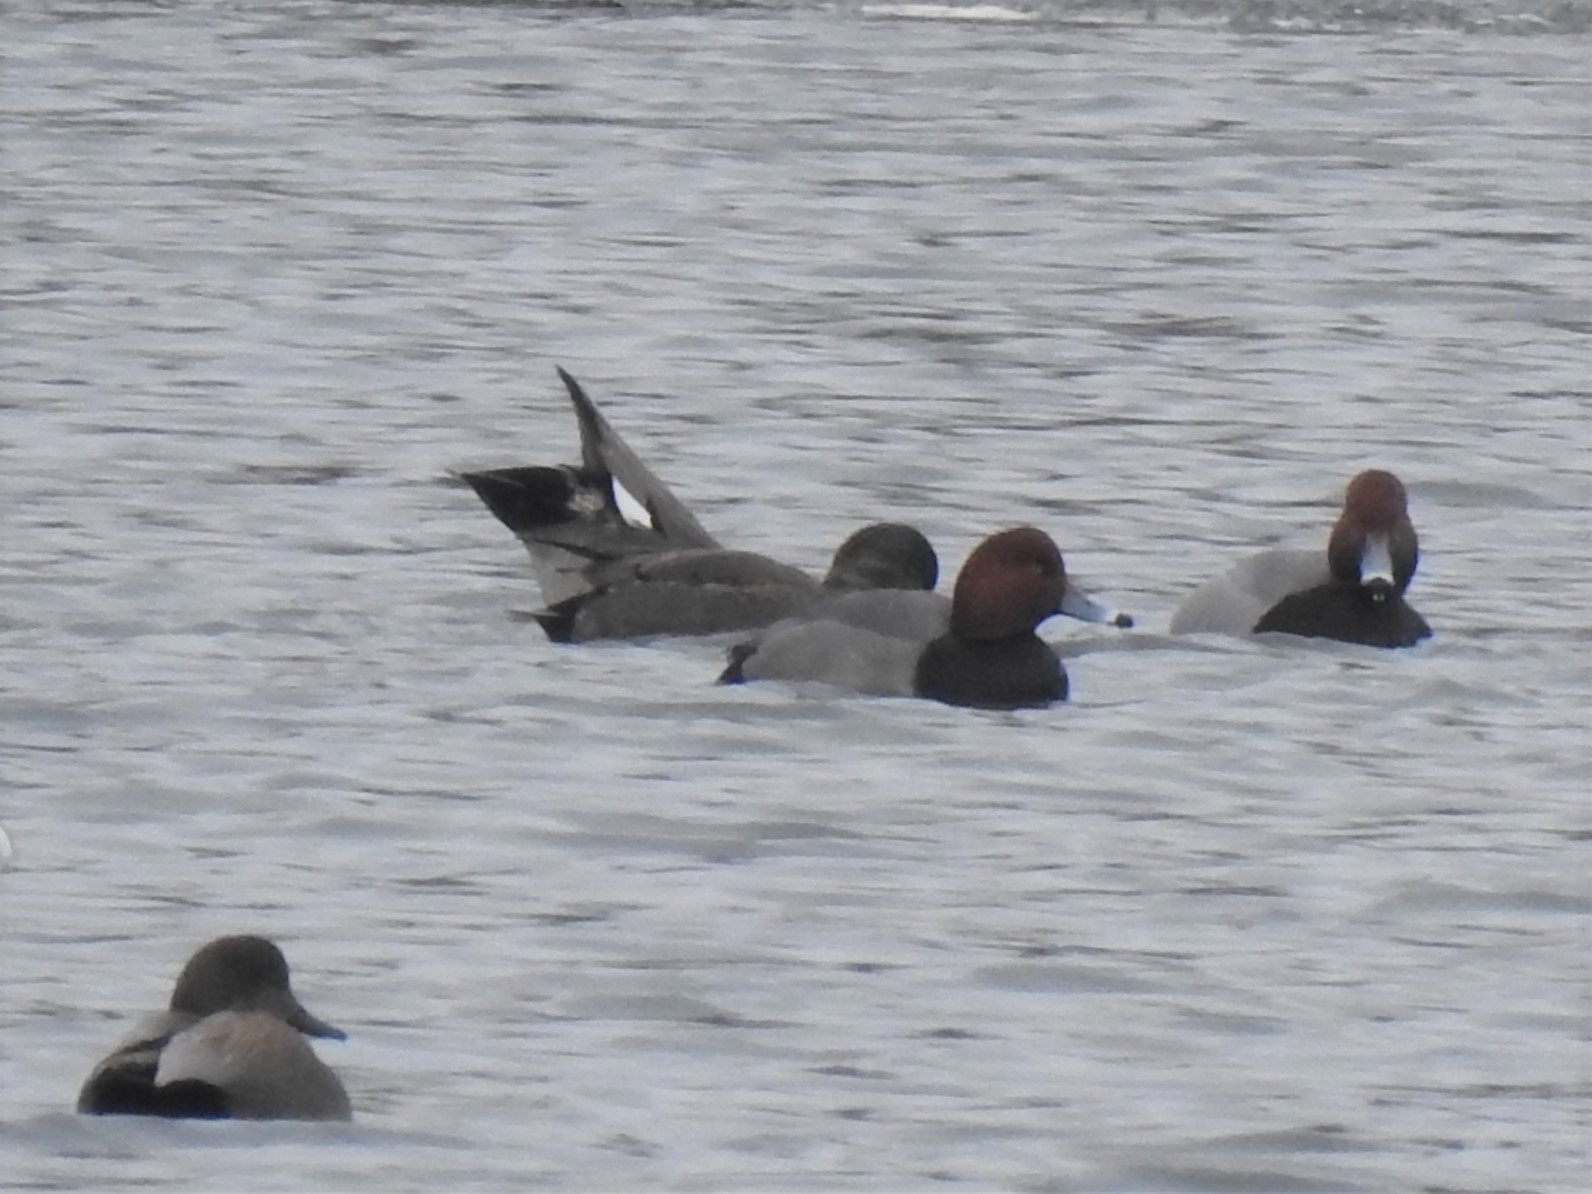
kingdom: Animalia
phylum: Chordata
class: Aves
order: Anseriformes
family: Anatidae
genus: Aythya
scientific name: Aythya americana
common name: Redhead
